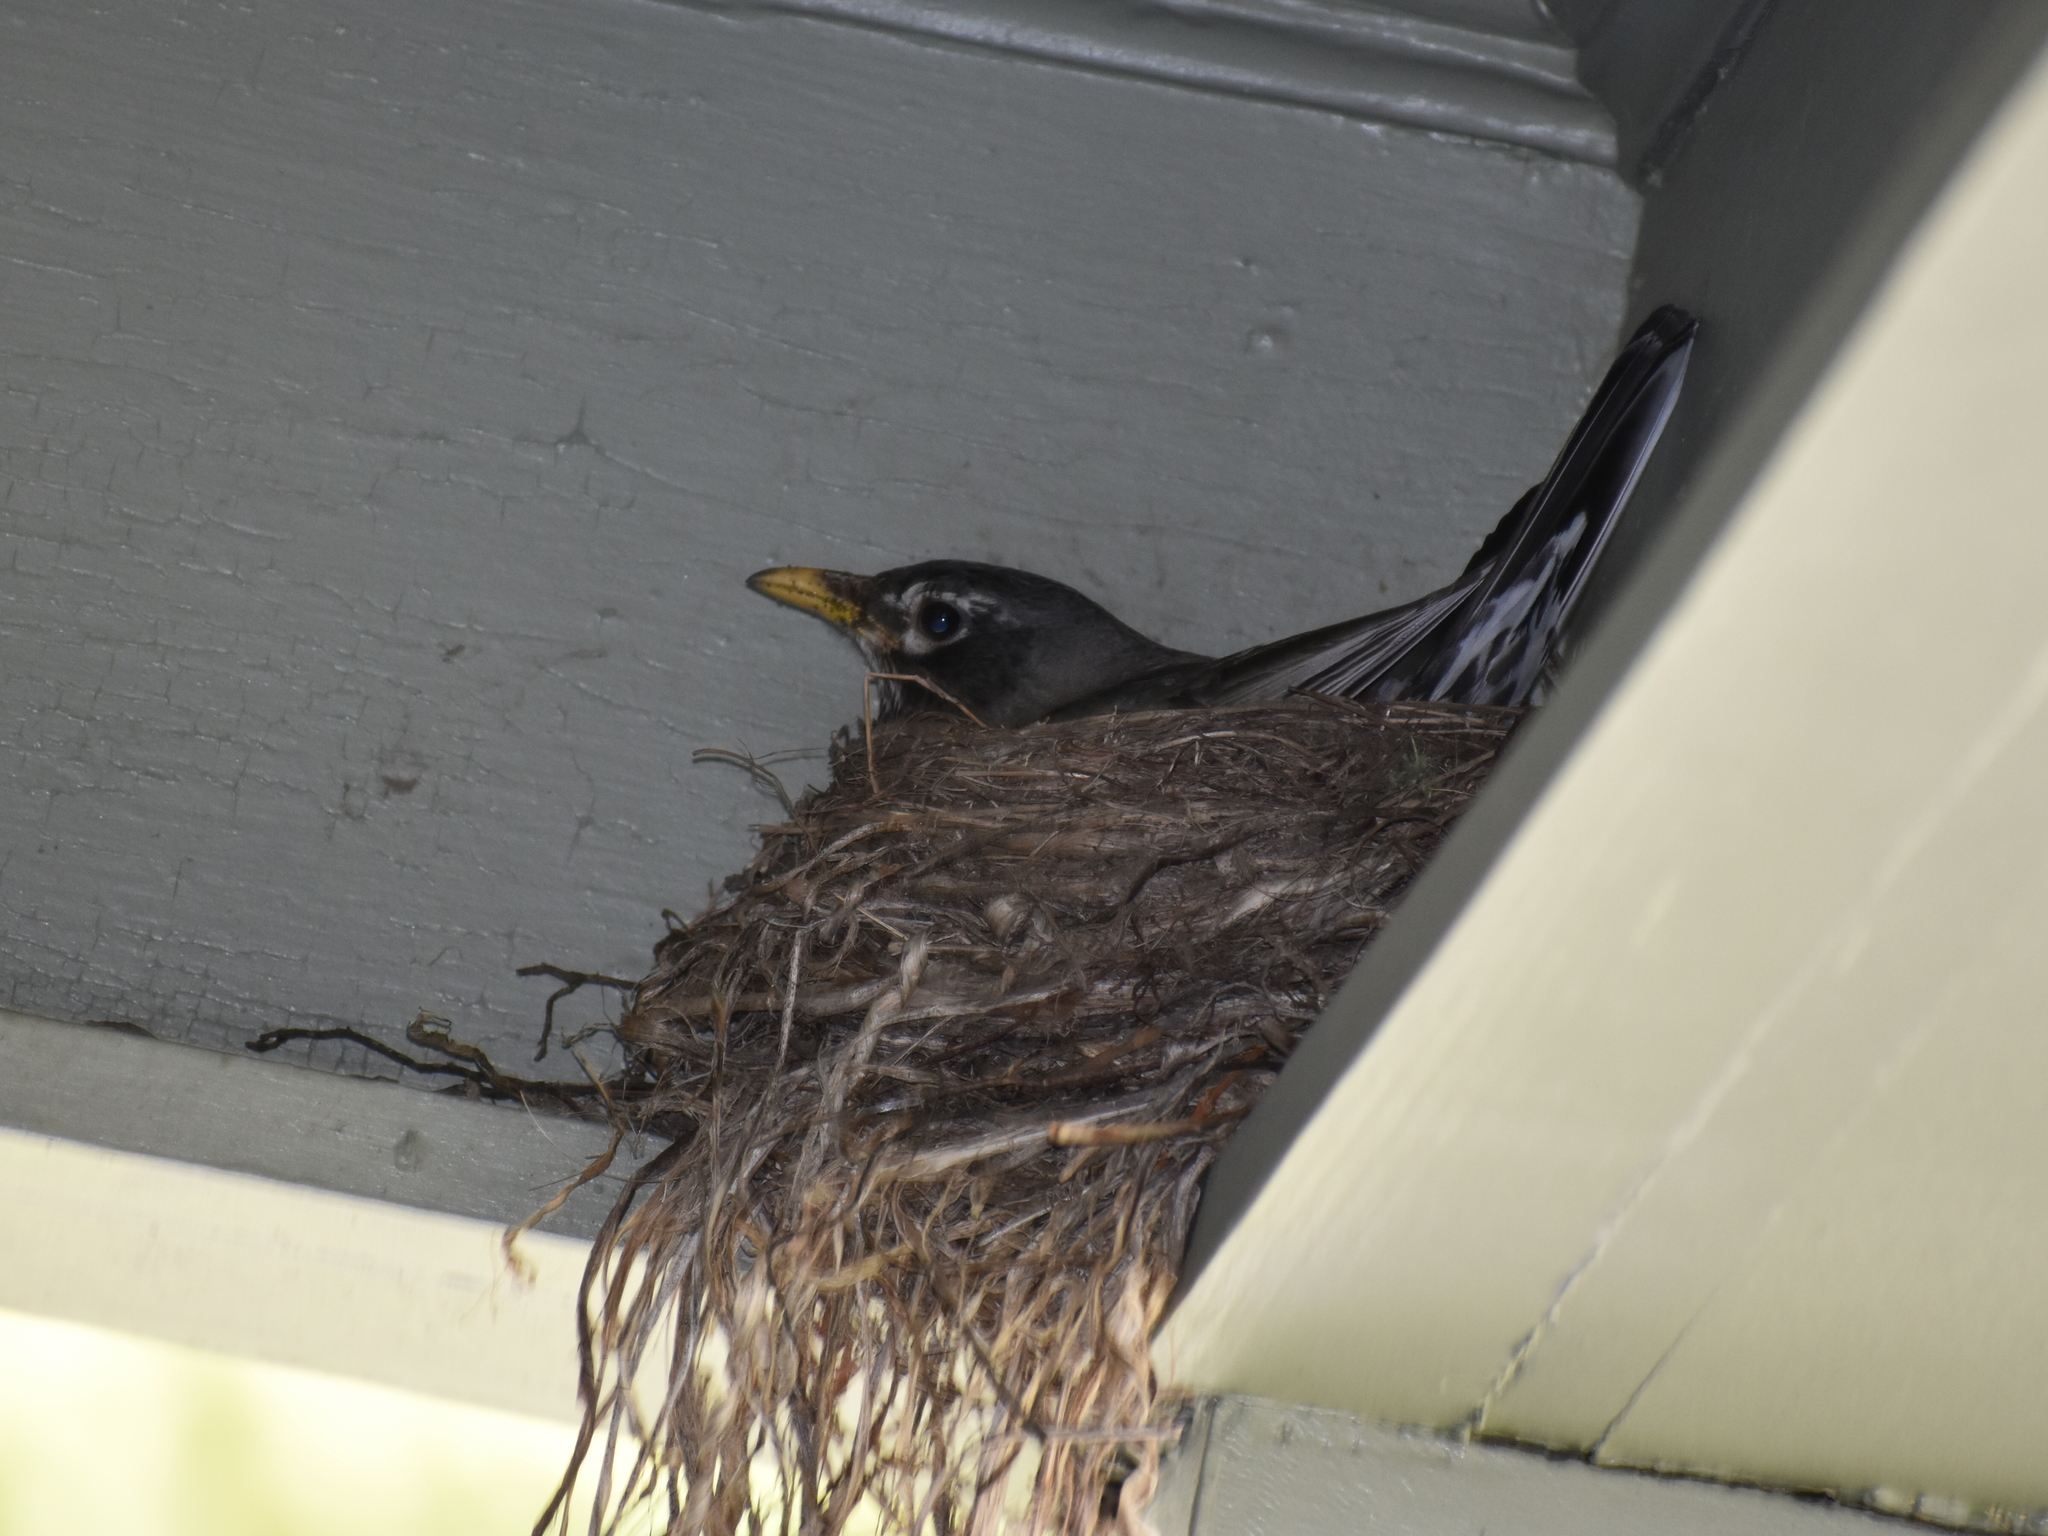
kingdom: Animalia
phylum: Chordata
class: Aves
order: Passeriformes
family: Turdidae
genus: Turdus
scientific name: Turdus migratorius
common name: American robin
